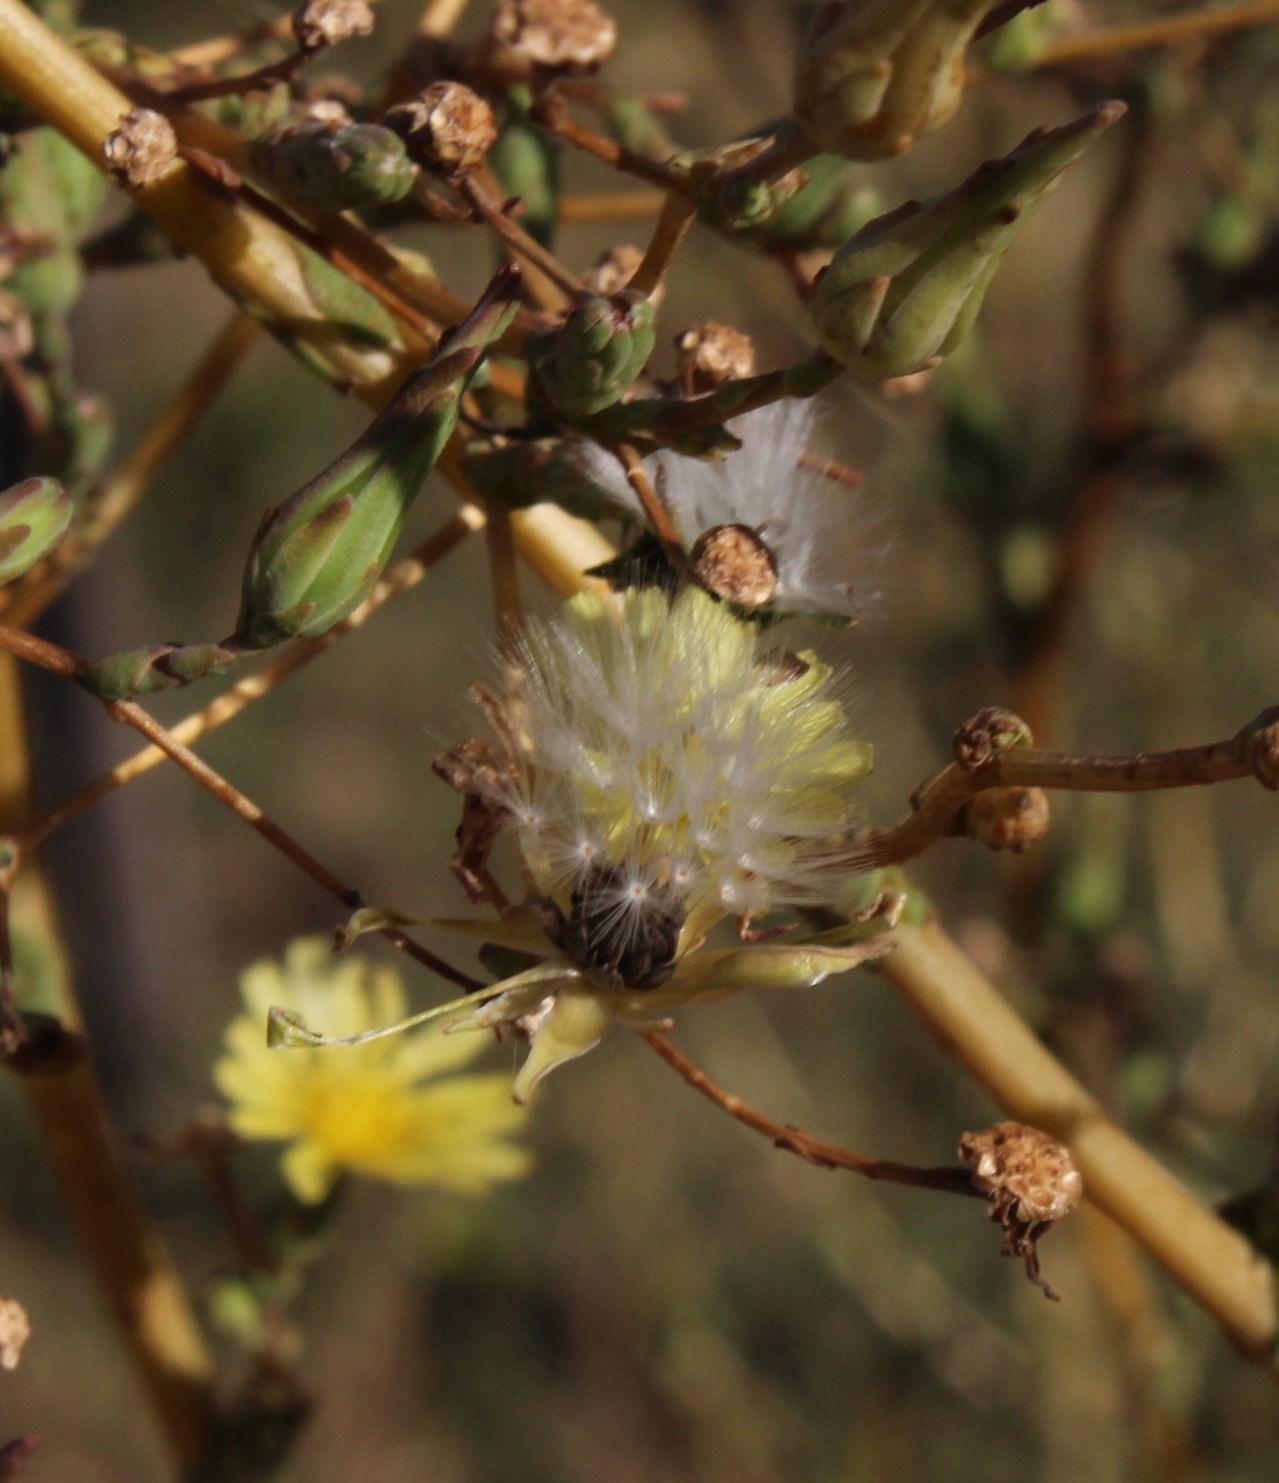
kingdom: Plantae
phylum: Tracheophyta
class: Magnoliopsida
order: Asterales
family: Asteraceae
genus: Lactuca
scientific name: Lactuca serriola
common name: Prickly lettuce
